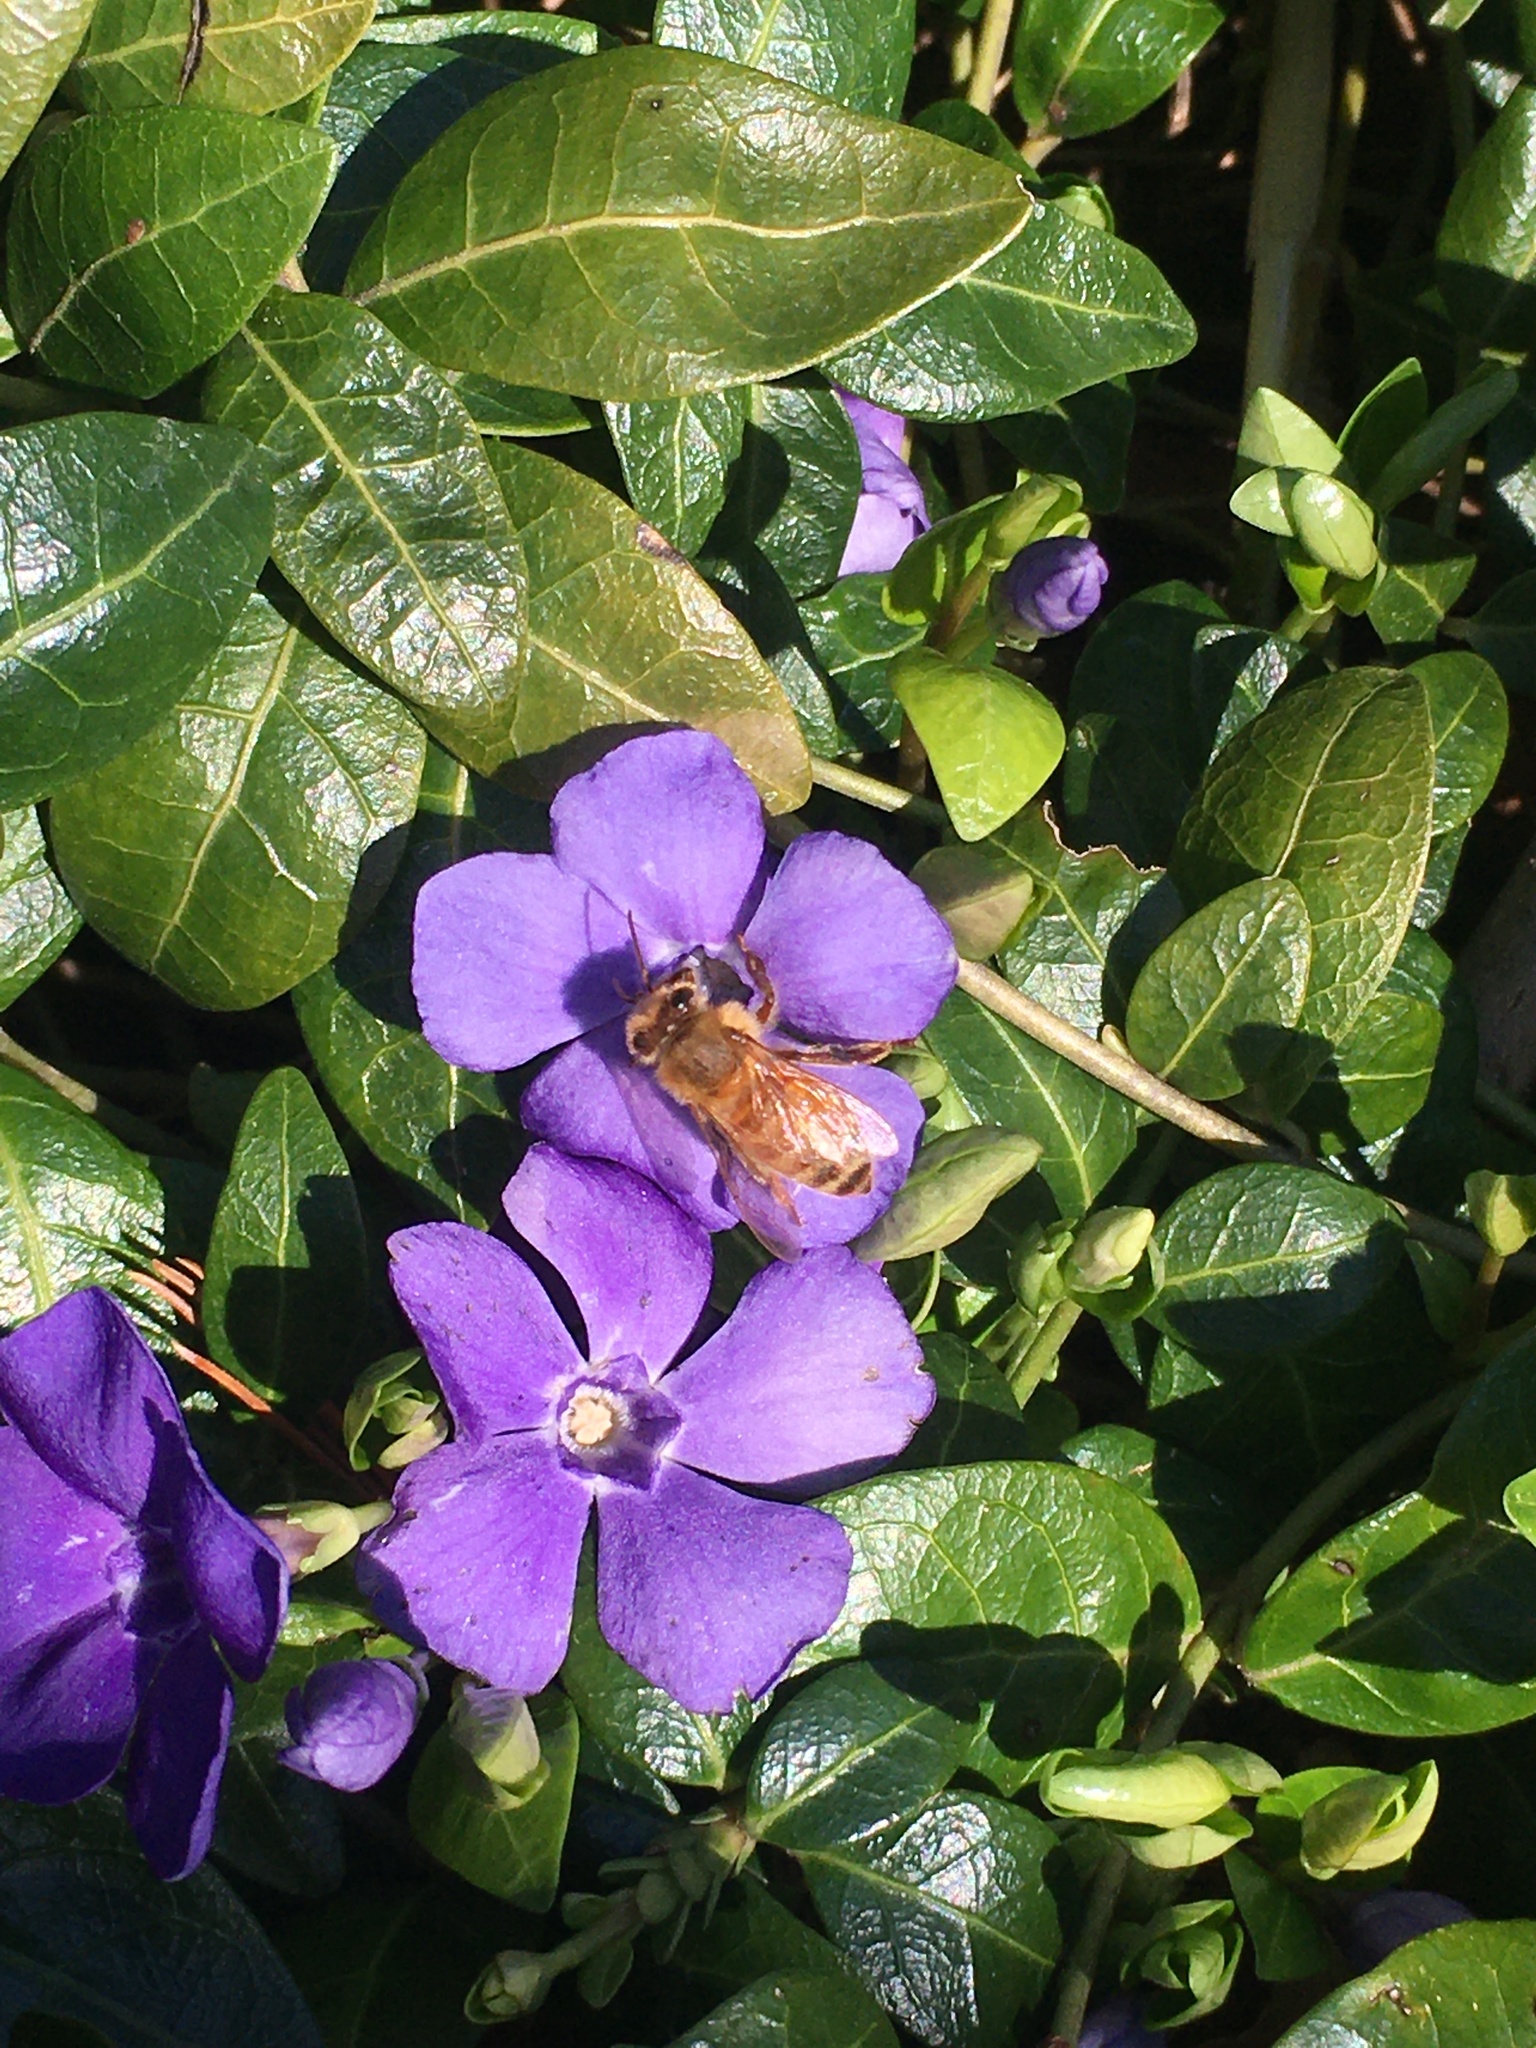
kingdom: Animalia
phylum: Arthropoda
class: Insecta
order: Hymenoptera
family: Apidae
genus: Apis
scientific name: Apis mellifera
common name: Honey bee
